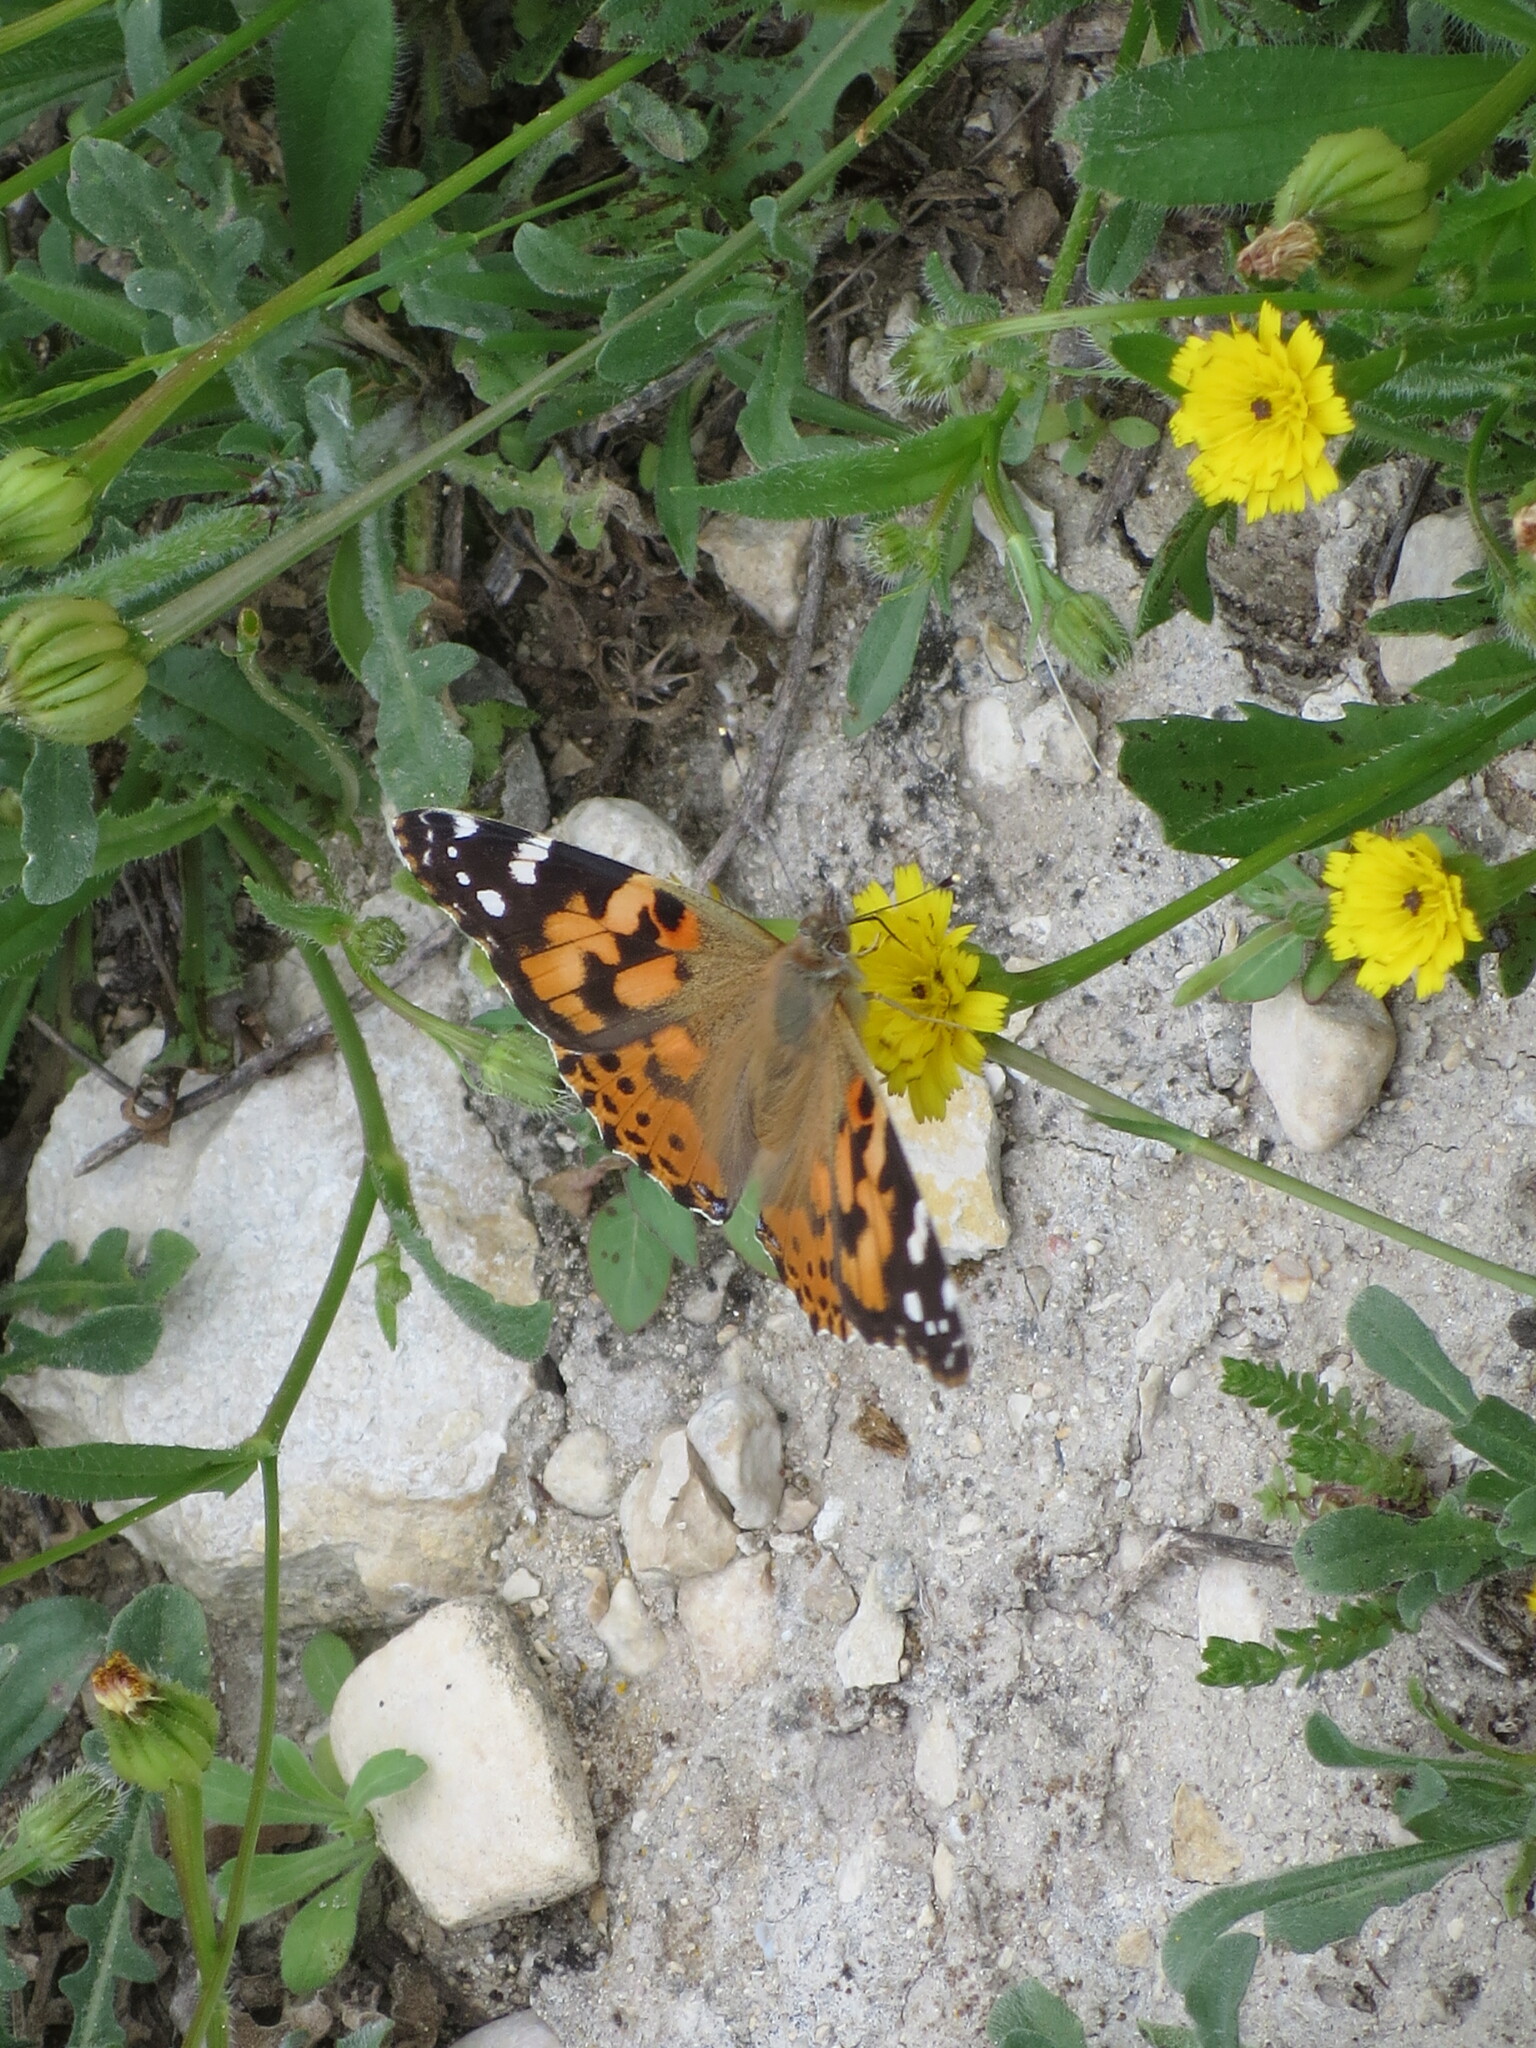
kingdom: Animalia
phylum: Arthropoda
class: Insecta
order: Lepidoptera
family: Nymphalidae
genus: Vanessa
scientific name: Vanessa cardui
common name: Painted lady
